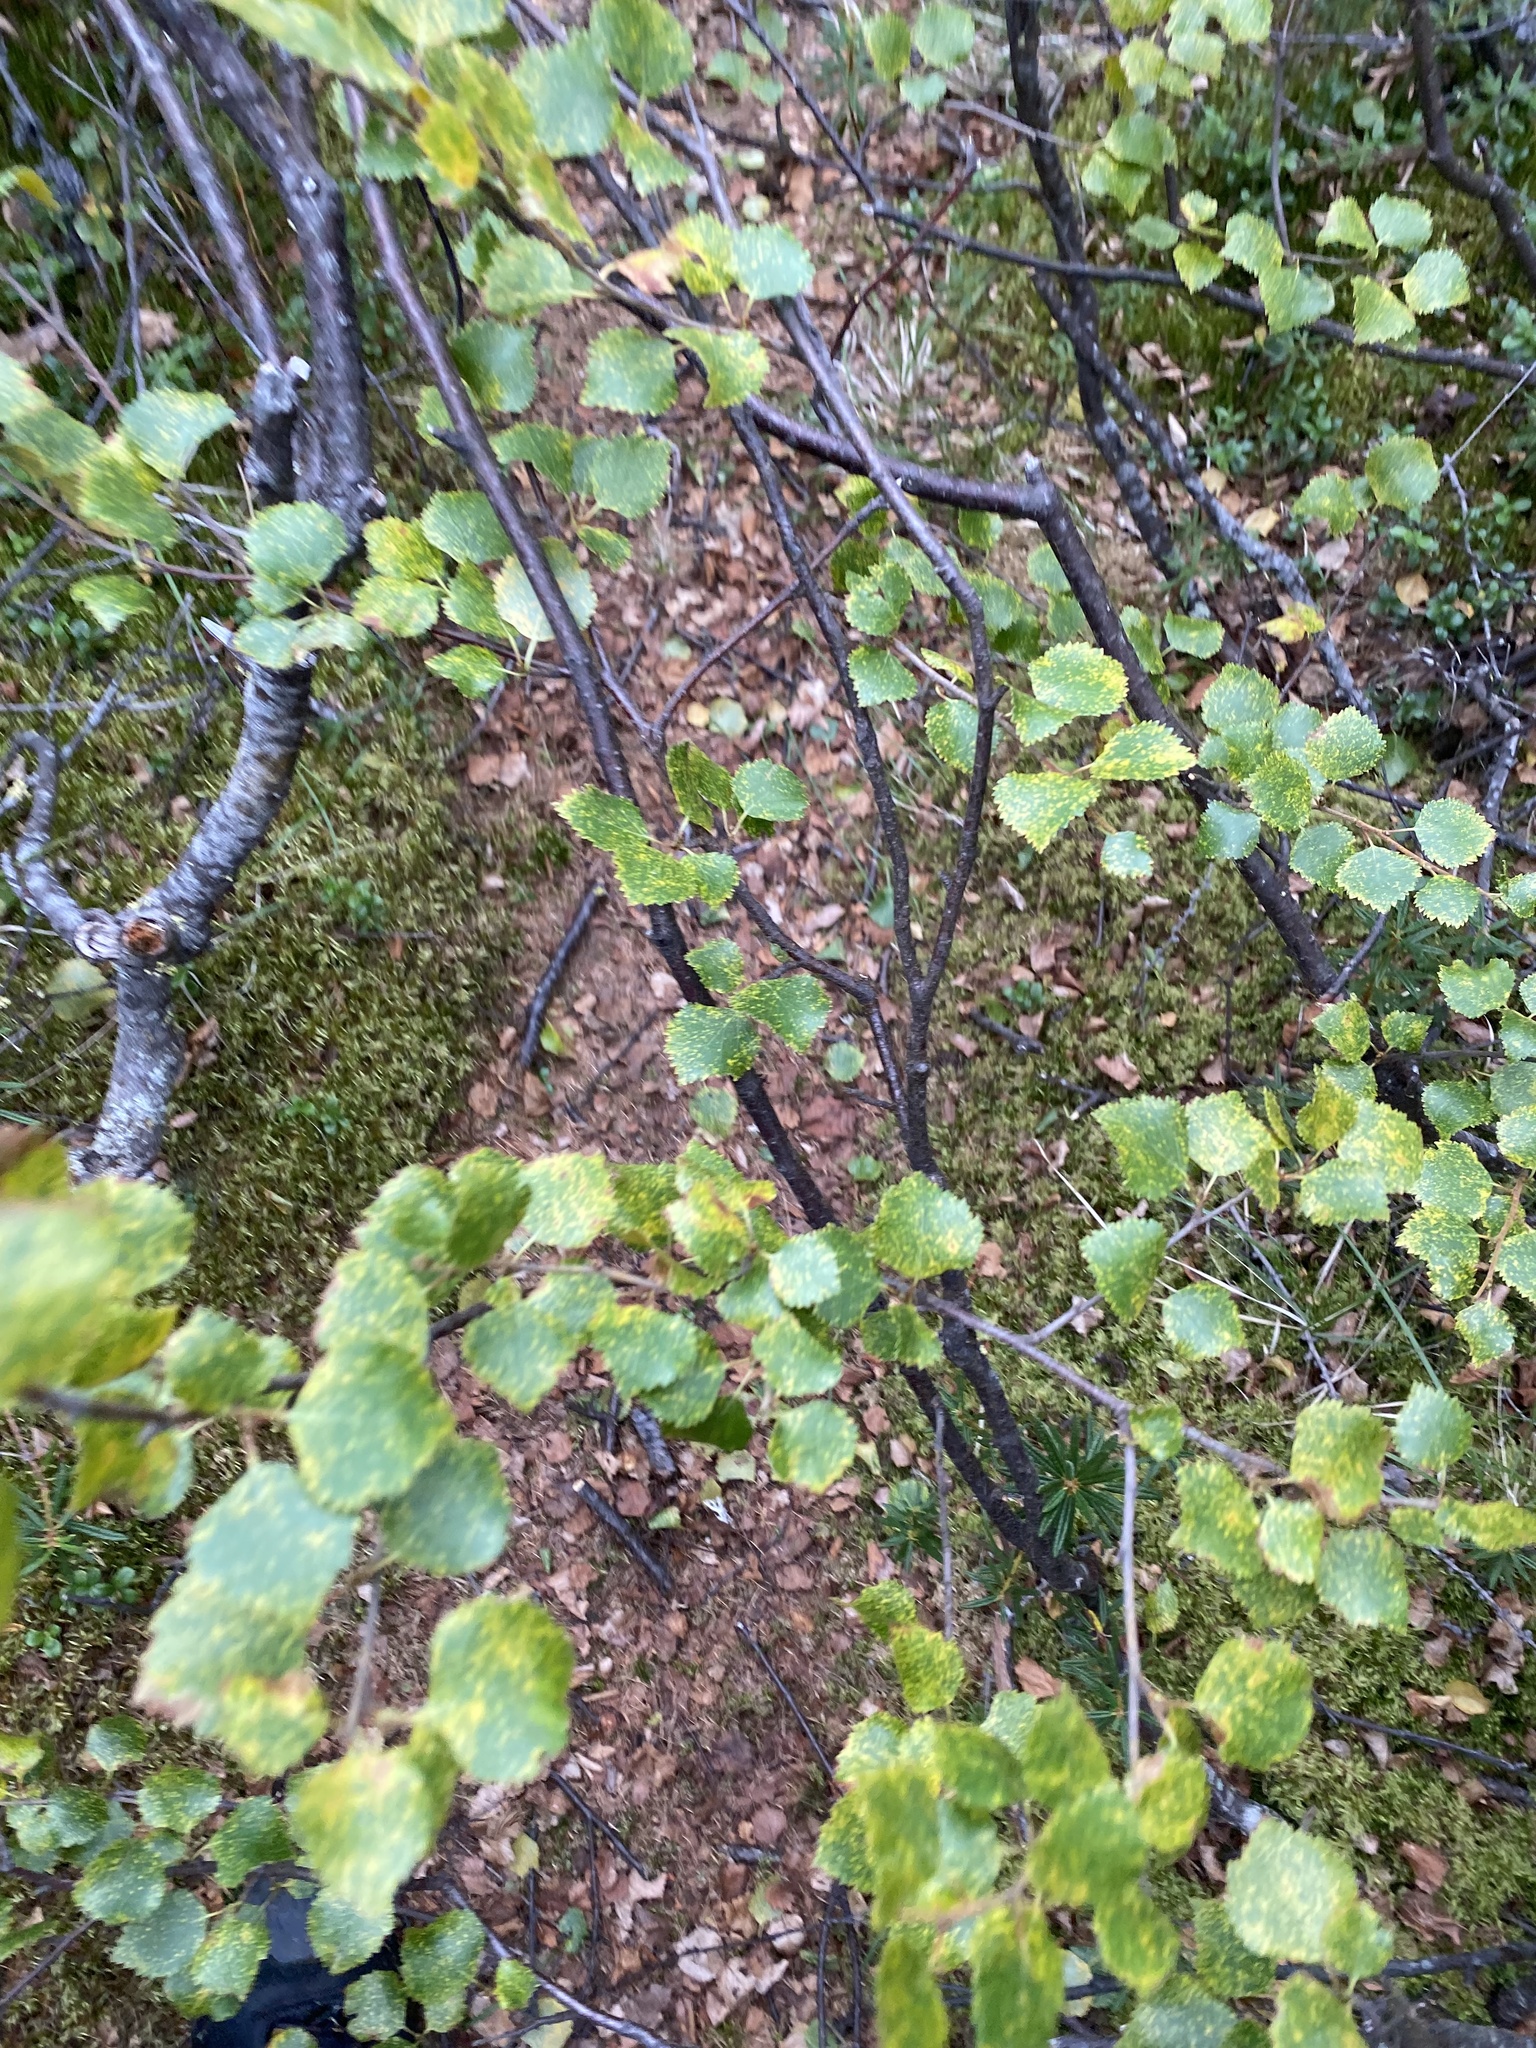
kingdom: Plantae
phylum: Tracheophyta
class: Magnoliopsida
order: Fagales
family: Betulaceae
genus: Betula
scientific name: Betula pubescens
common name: Downy birch
